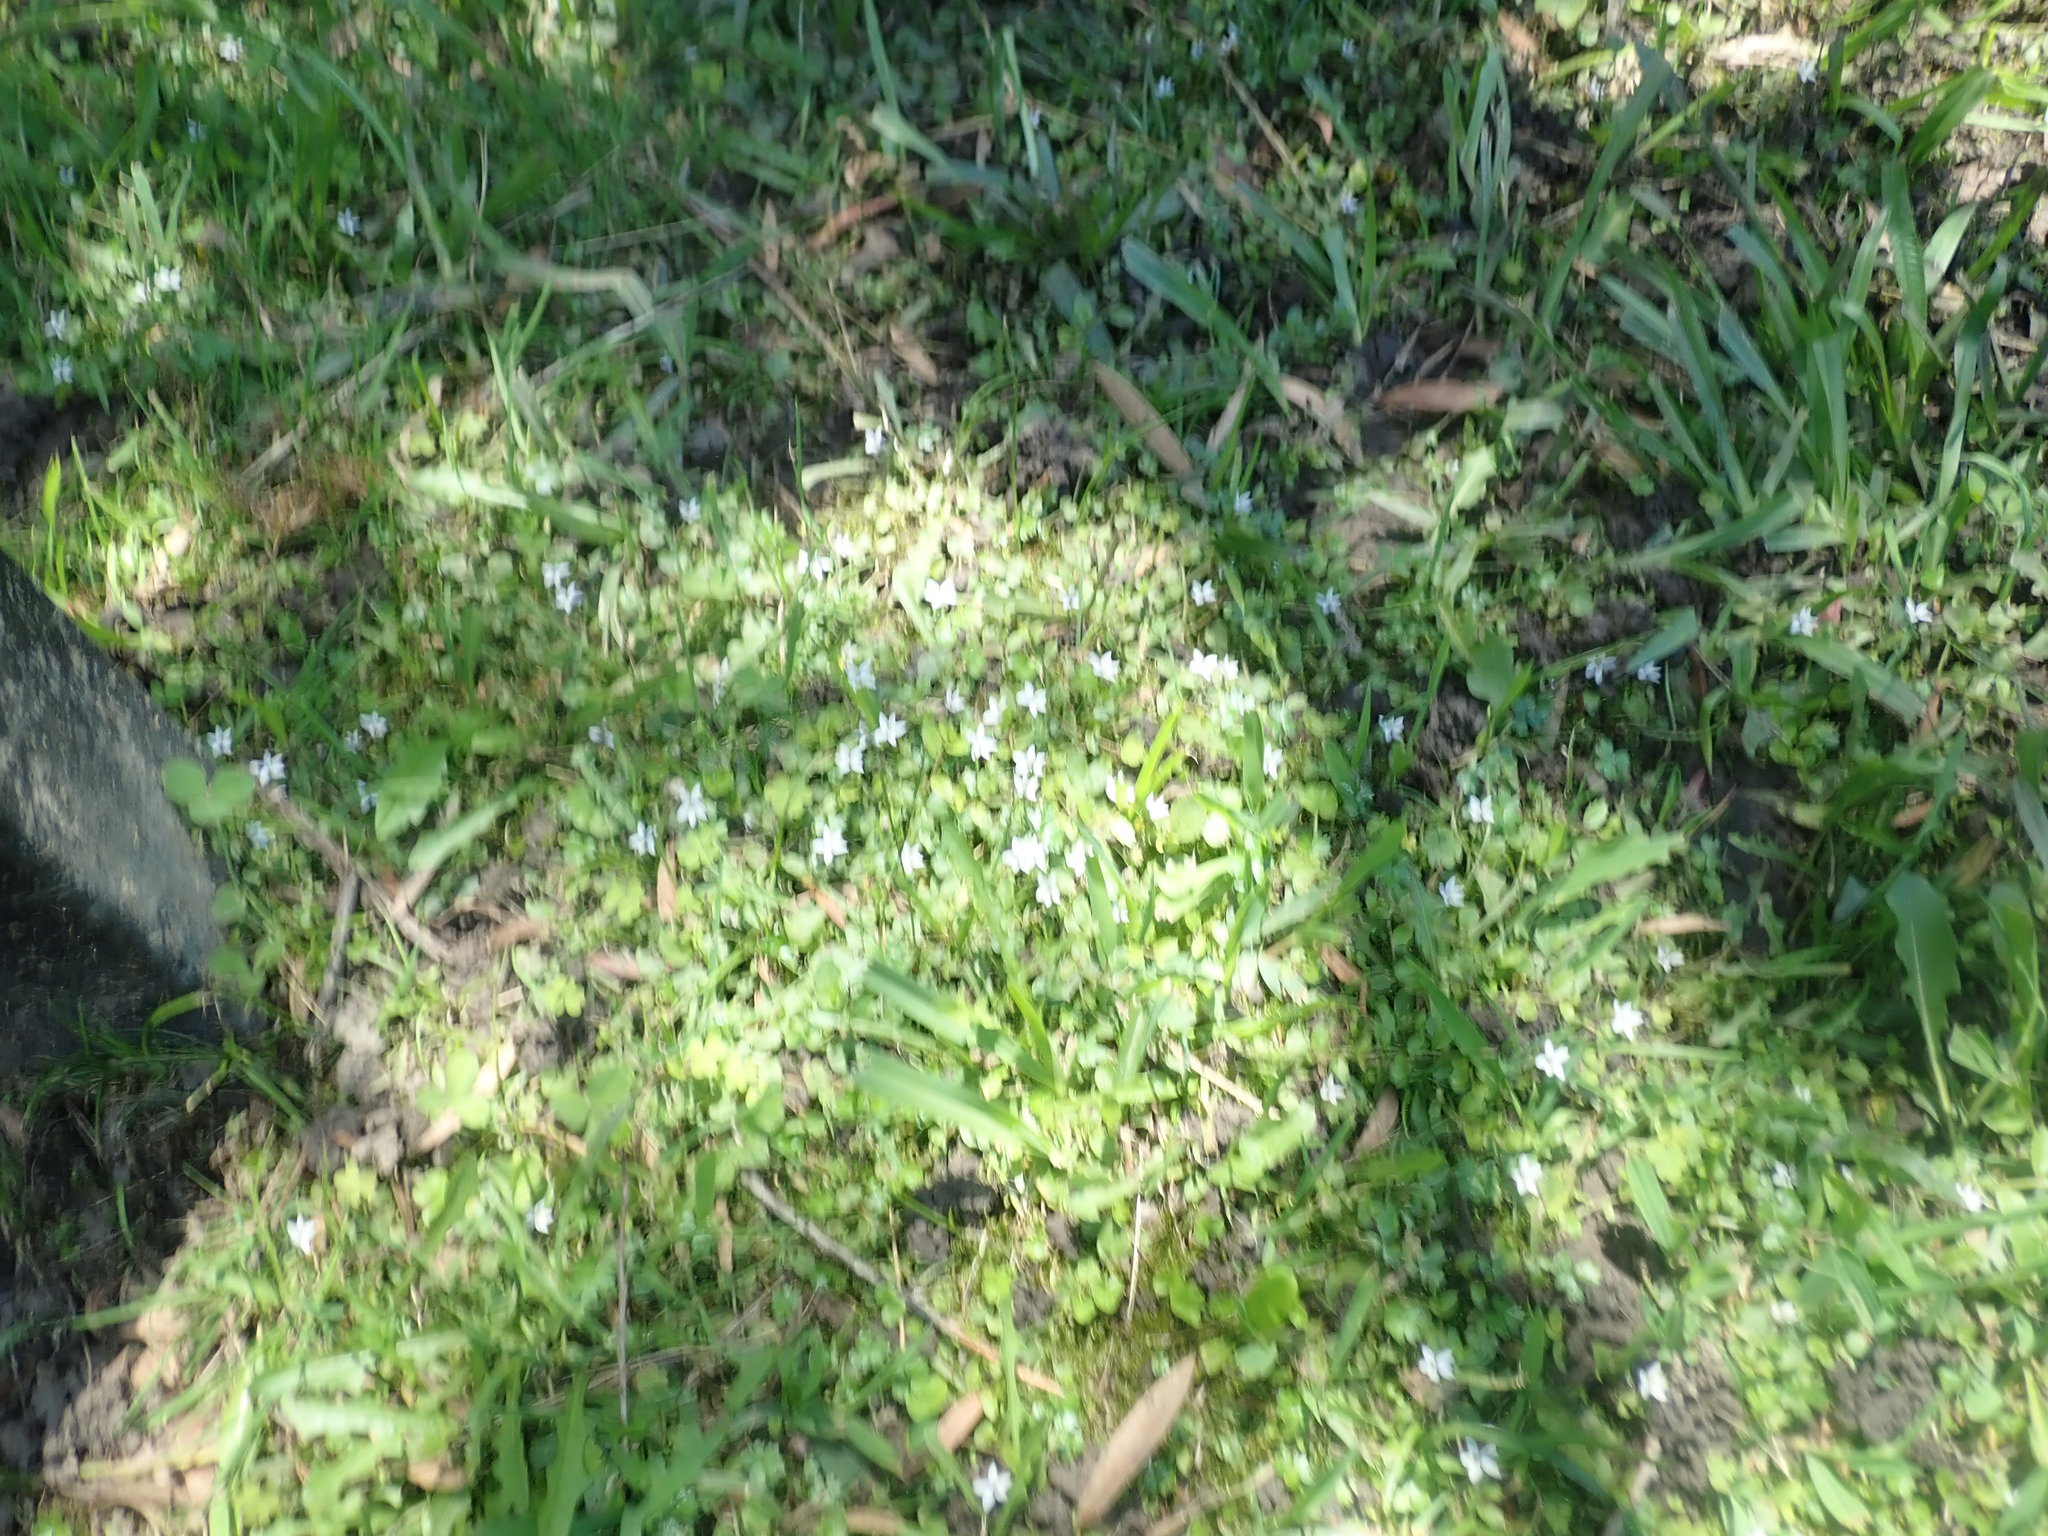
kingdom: Plantae
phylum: Tracheophyta
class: Magnoliopsida
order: Asterales
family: Campanulaceae
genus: Lobelia
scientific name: Lobelia purpurascens
